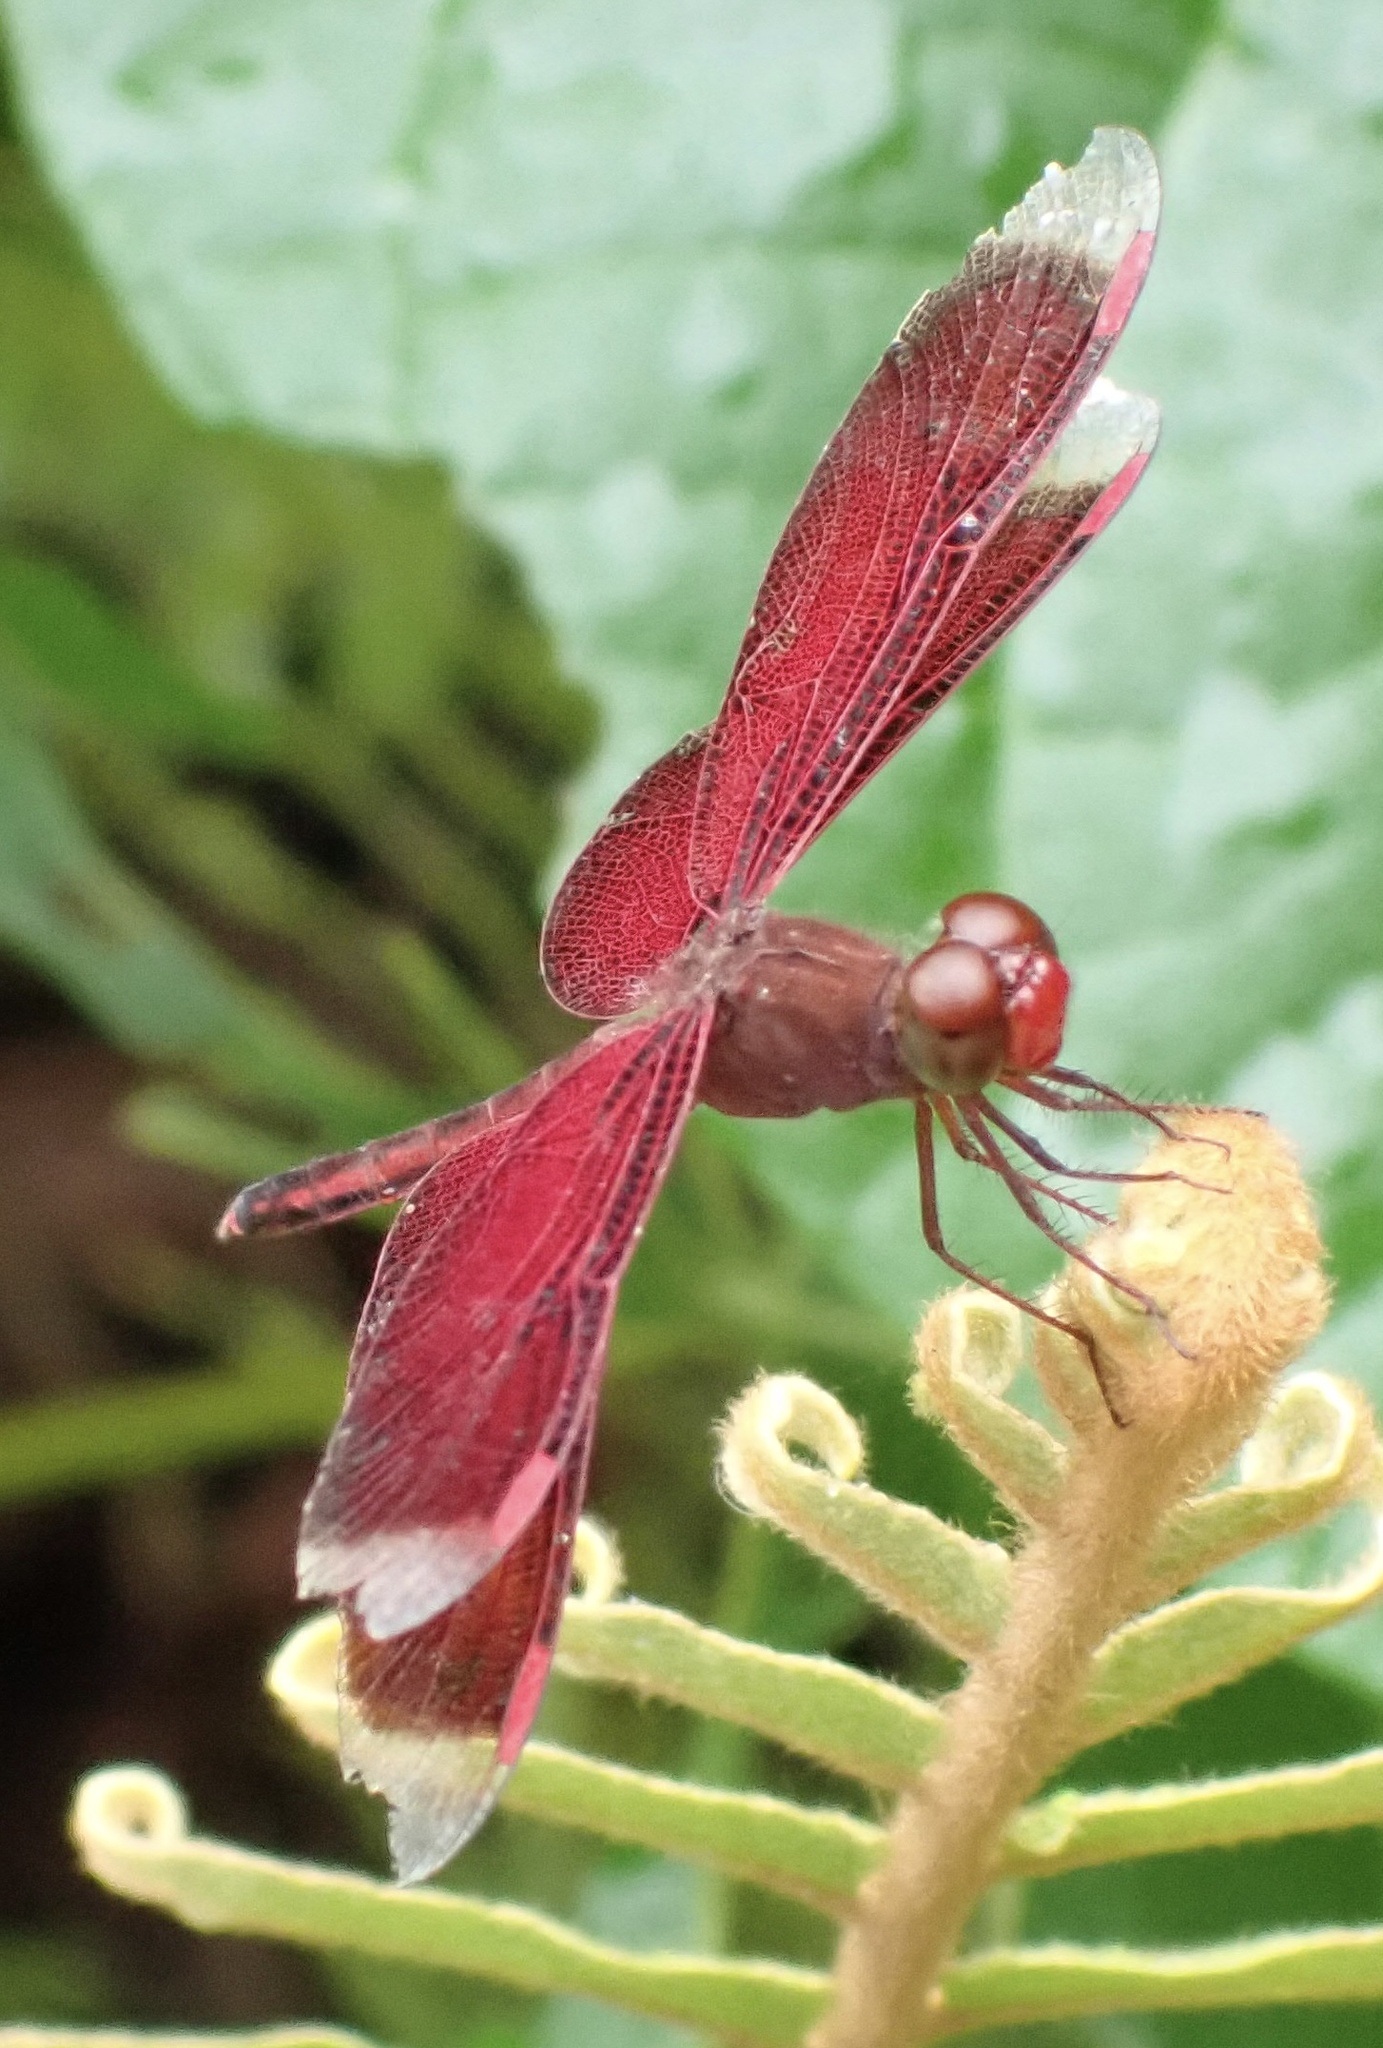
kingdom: Animalia
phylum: Arthropoda
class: Insecta
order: Odonata
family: Libellulidae
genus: Neurothemis
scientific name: Neurothemis stigmatizans
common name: Painted grasshawk
